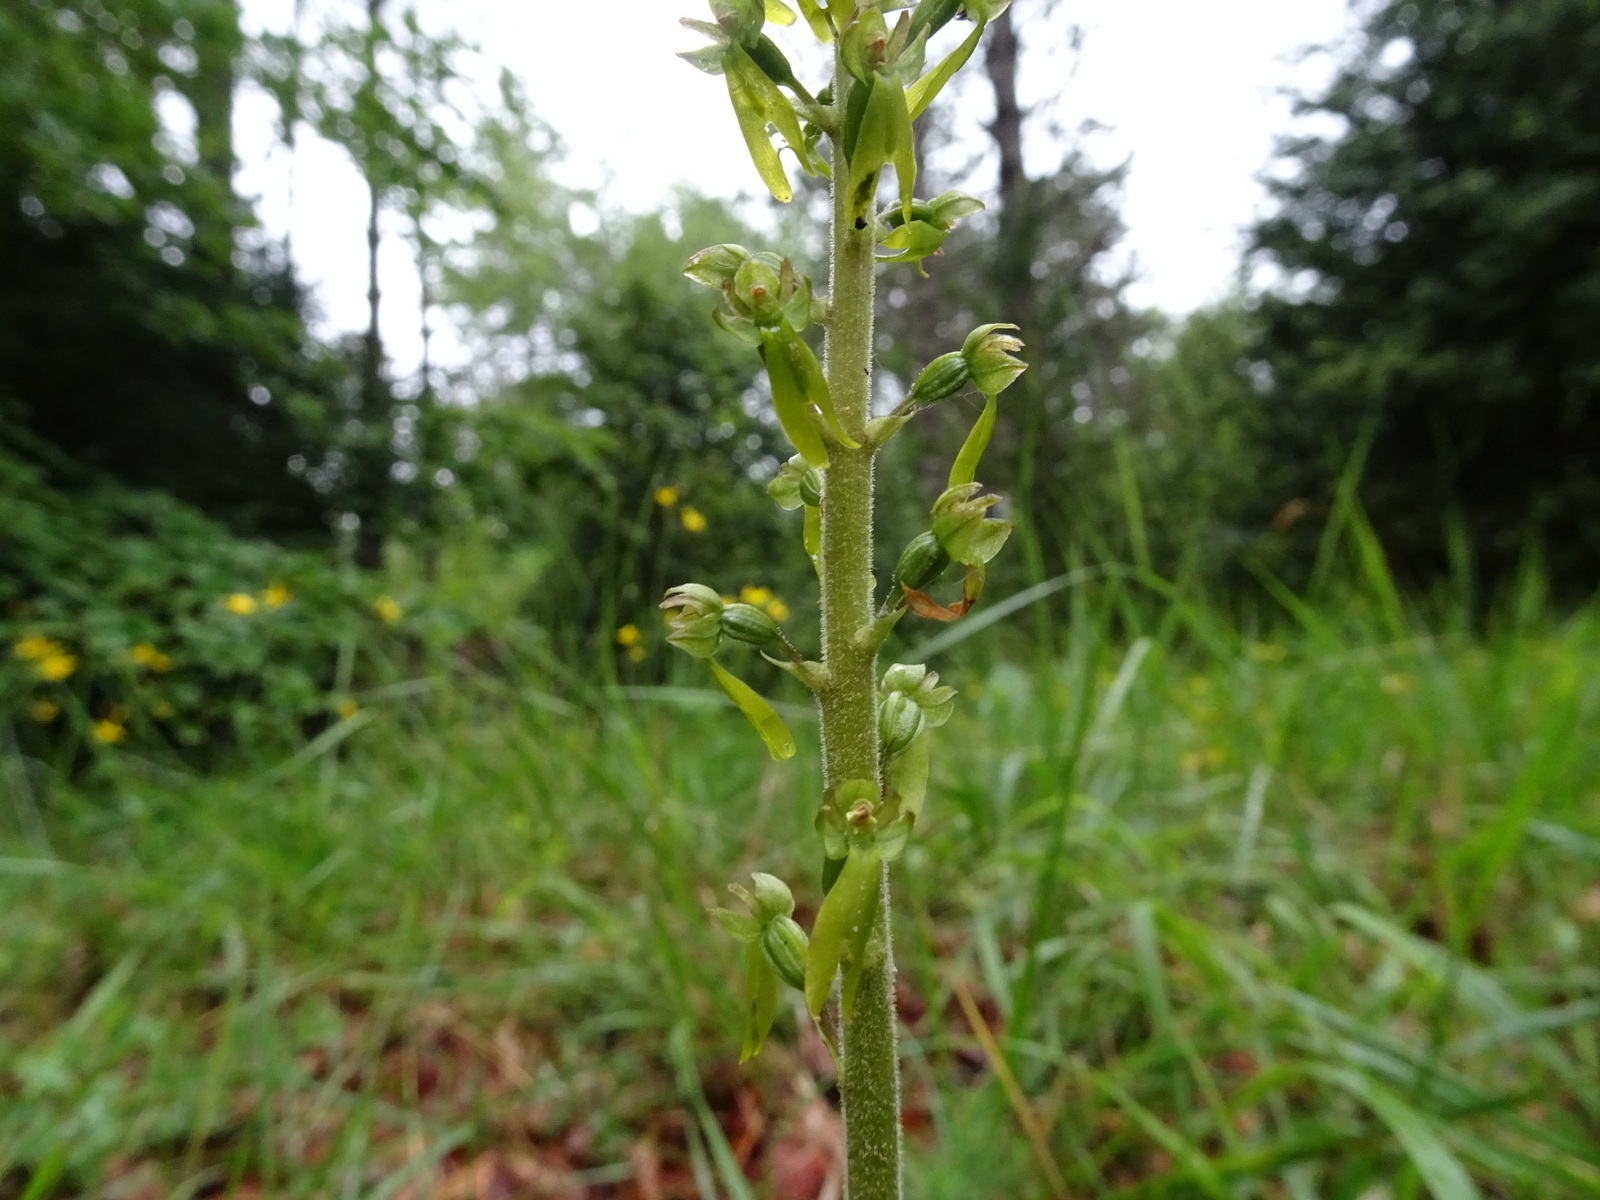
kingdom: Plantae
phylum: Tracheophyta
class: Liliopsida
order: Asparagales
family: Orchidaceae
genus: Neottia
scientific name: Neottia ovata
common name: Common twayblade
